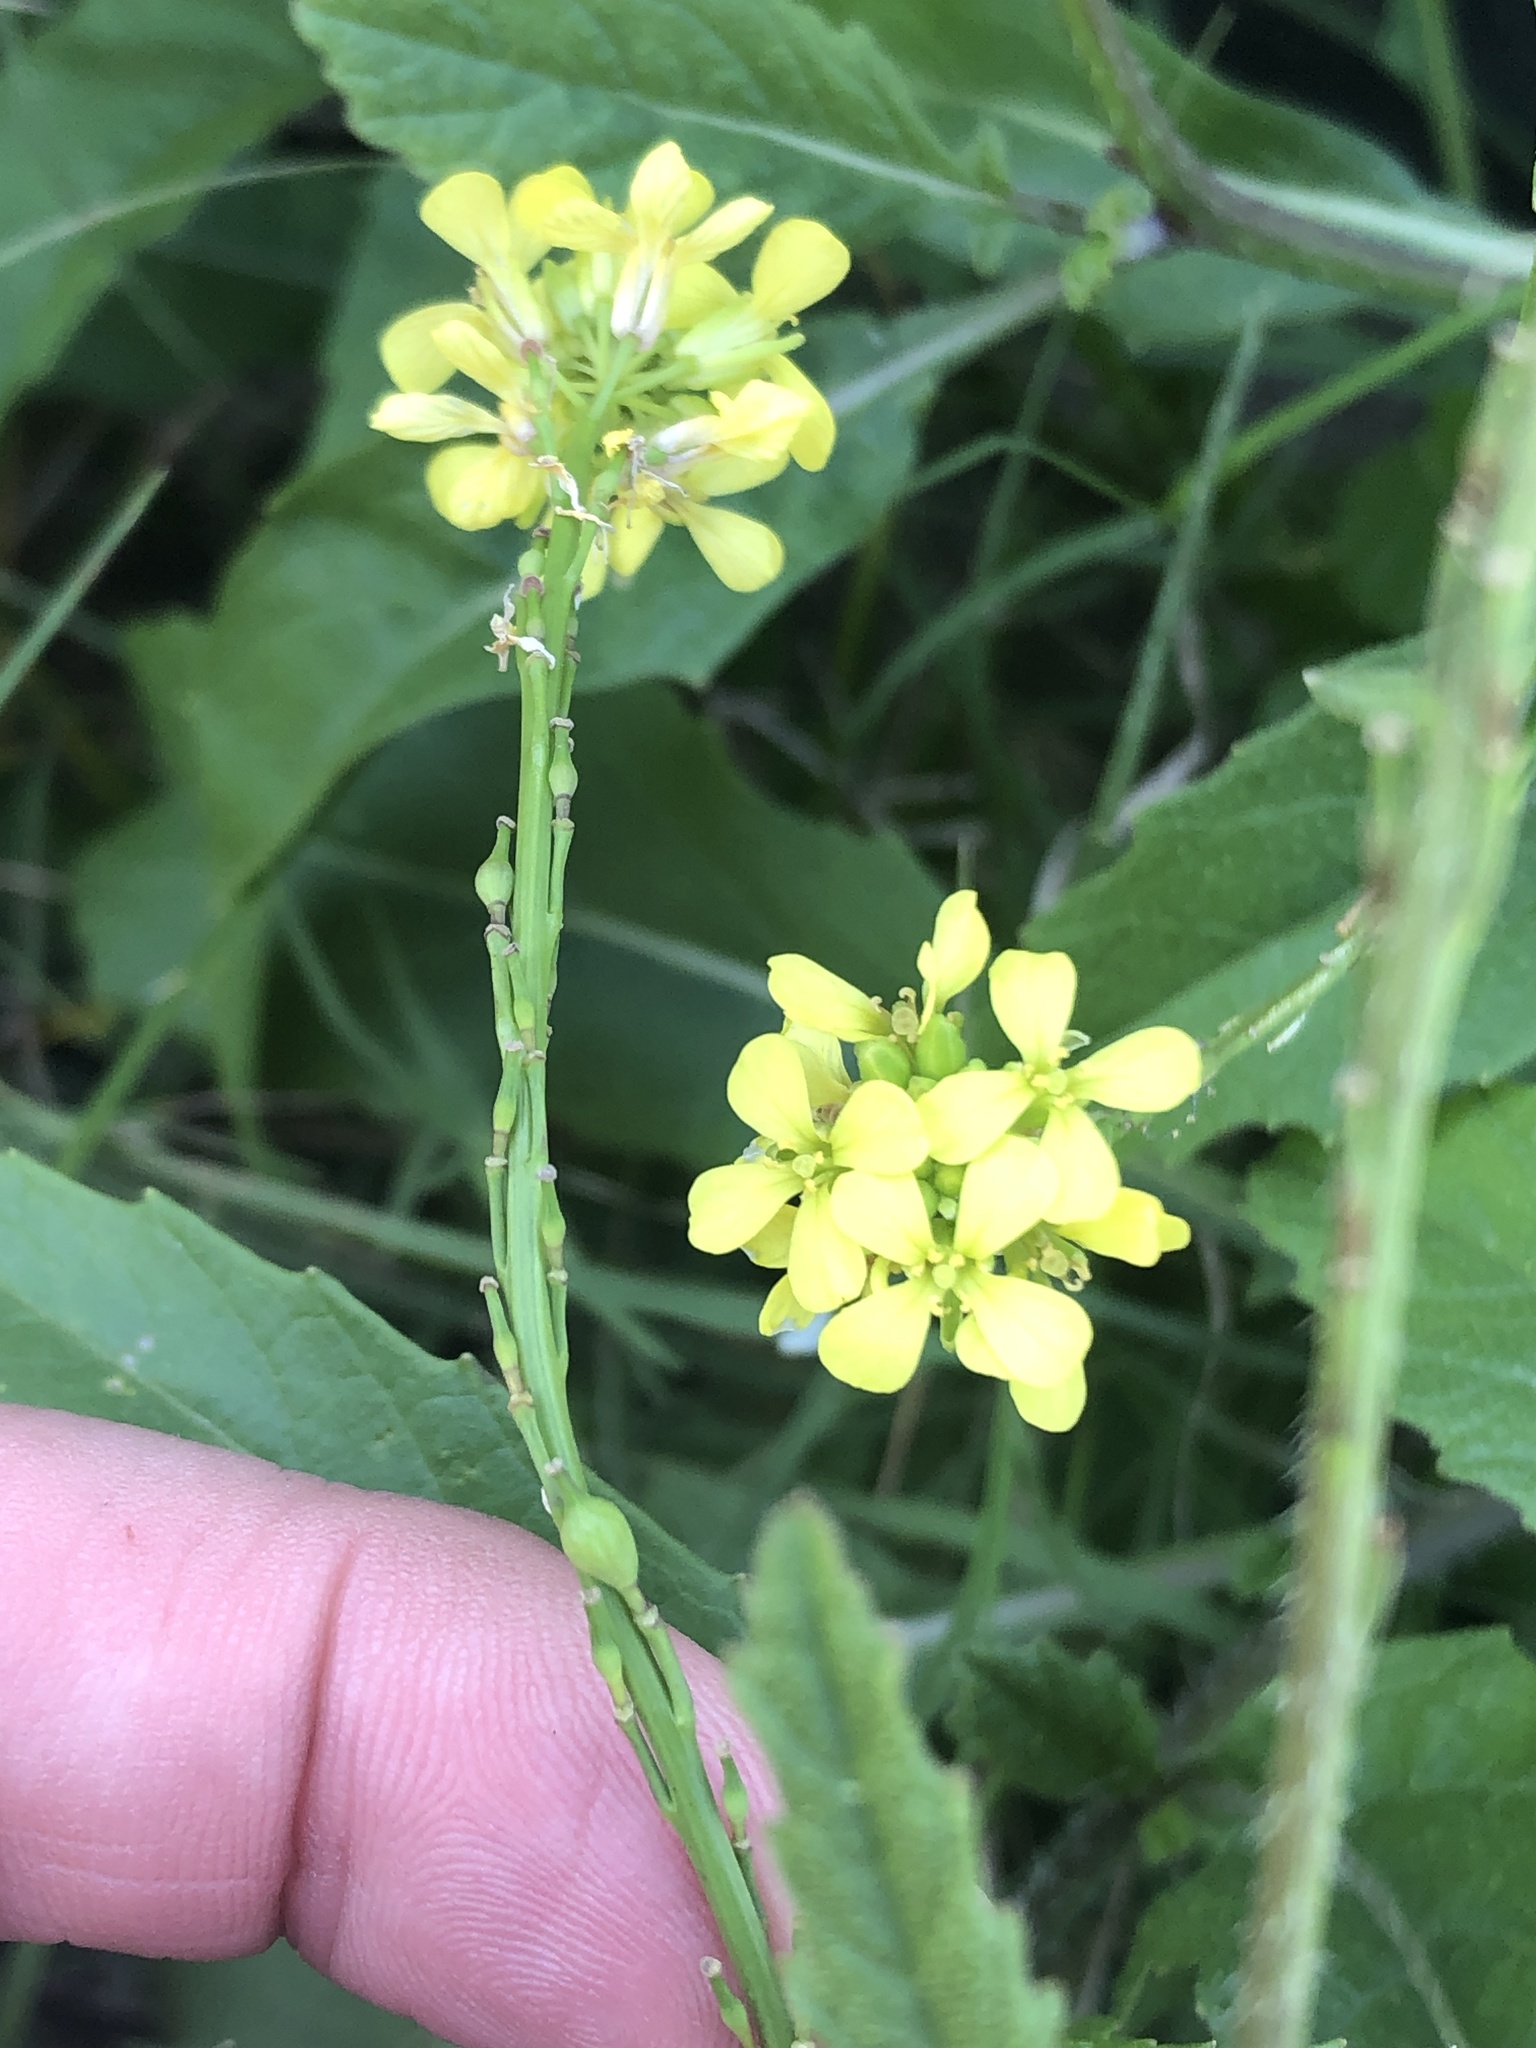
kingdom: Plantae
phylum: Tracheophyta
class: Magnoliopsida
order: Brassicales
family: Brassicaceae
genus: Rapistrum
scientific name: Rapistrum rugosum
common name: Annual bastardcabbage
